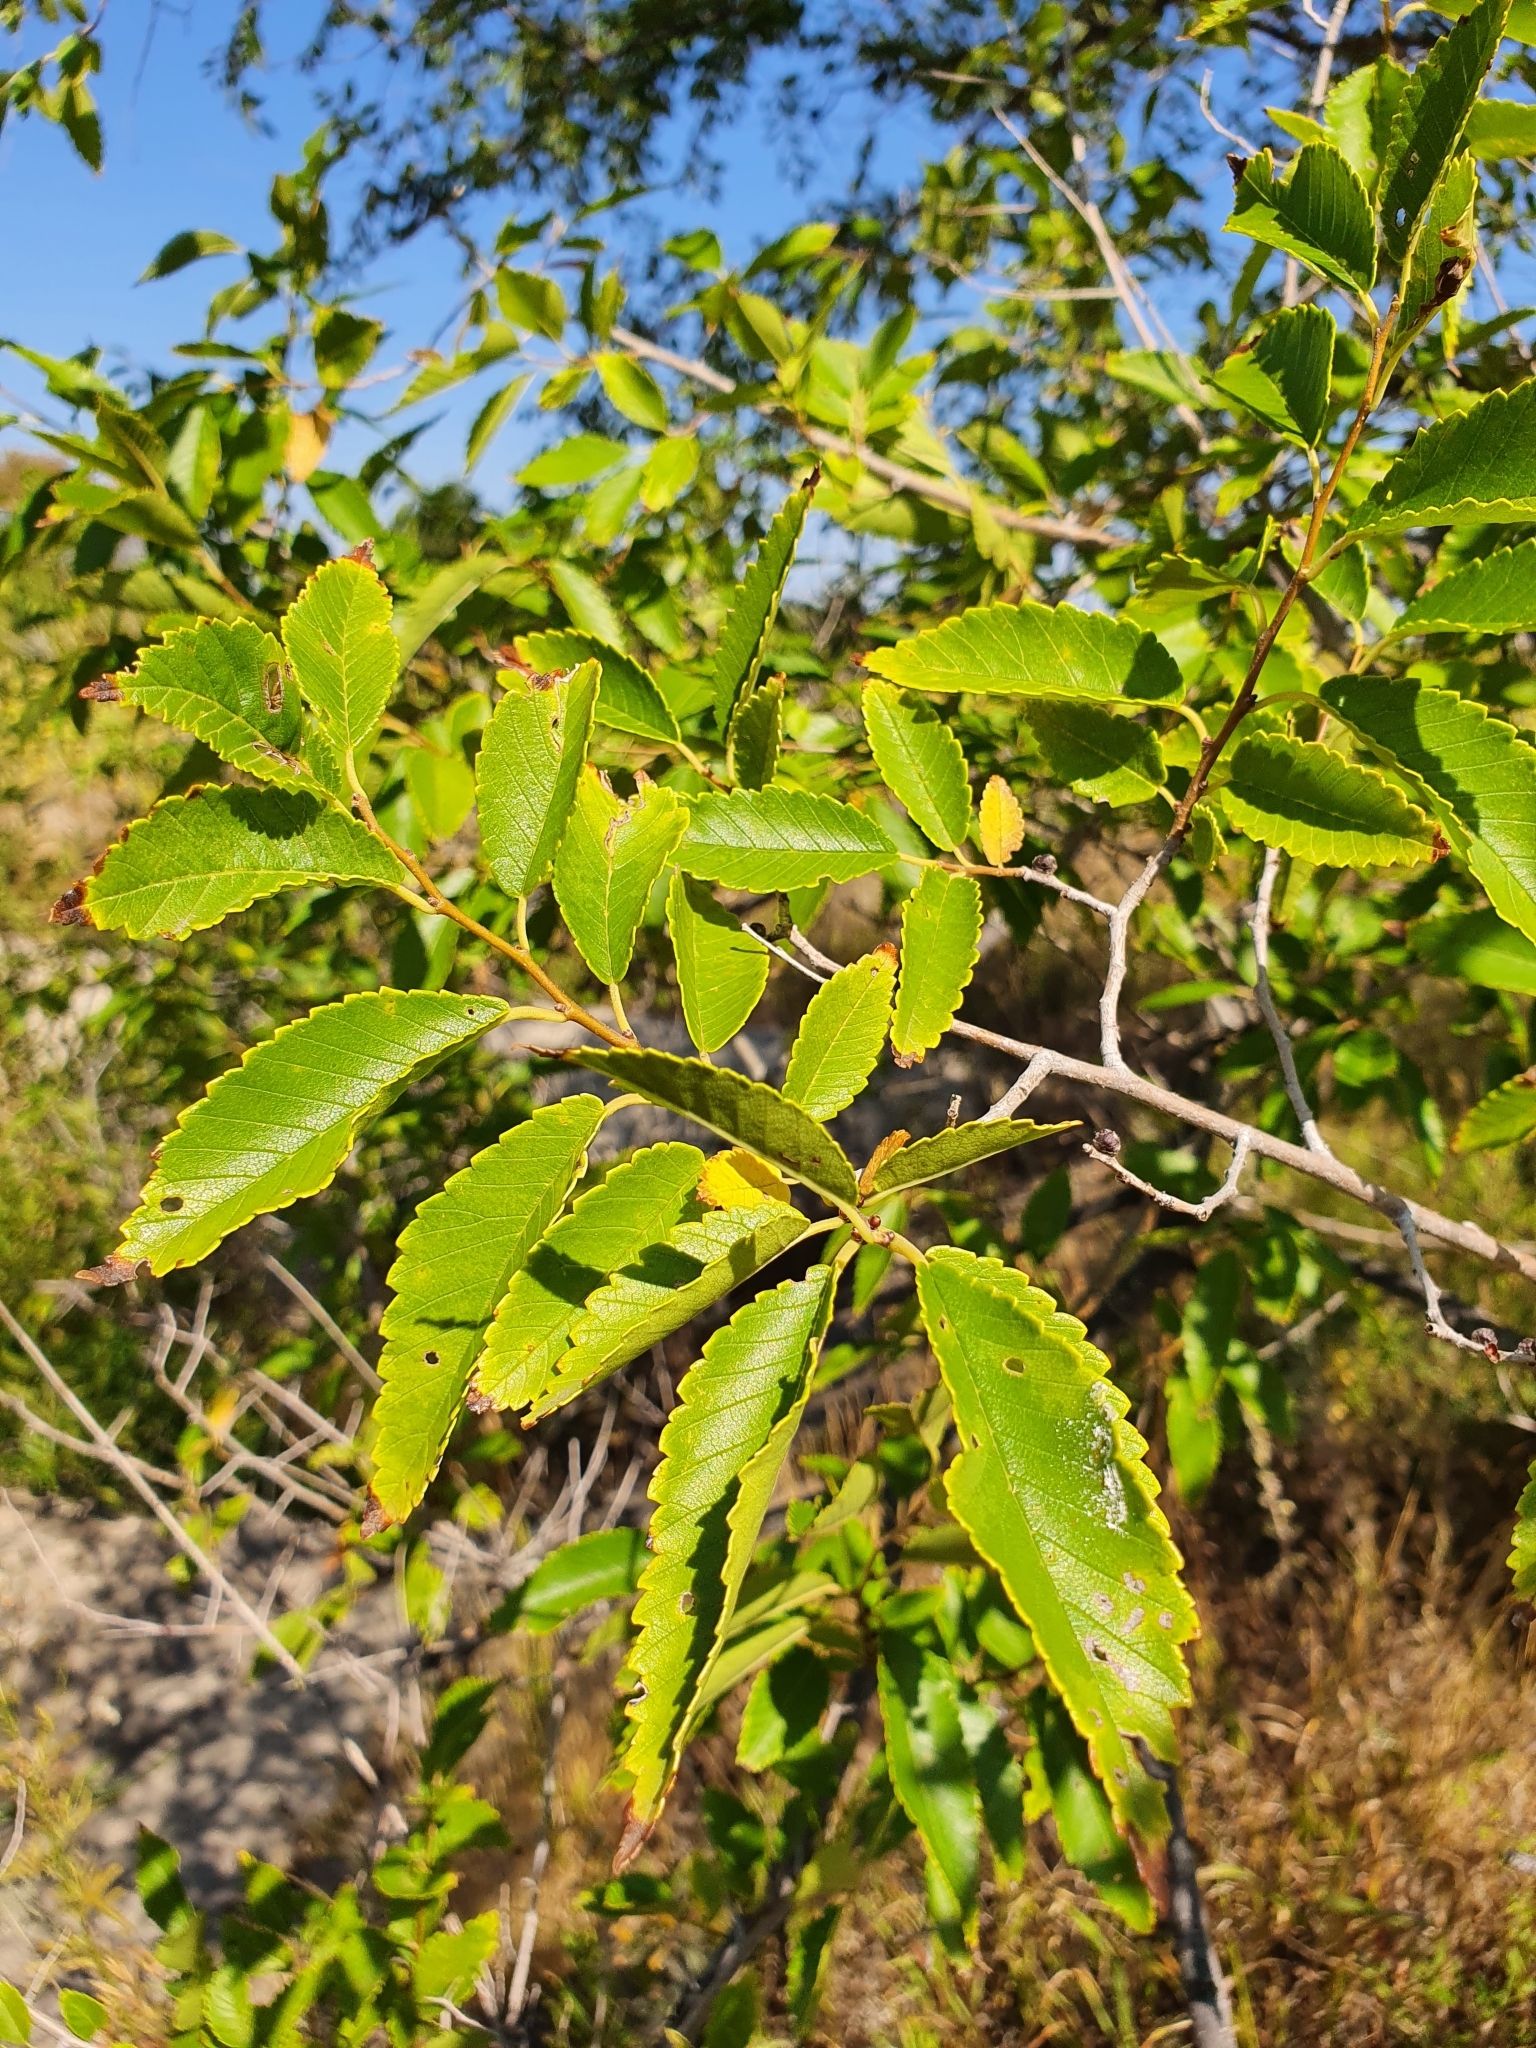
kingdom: Plantae
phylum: Tracheophyta
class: Magnoliopsida
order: Rosales
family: Ulmaceae
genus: Ulmus
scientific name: Ulmus pumila
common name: Siberian elm
